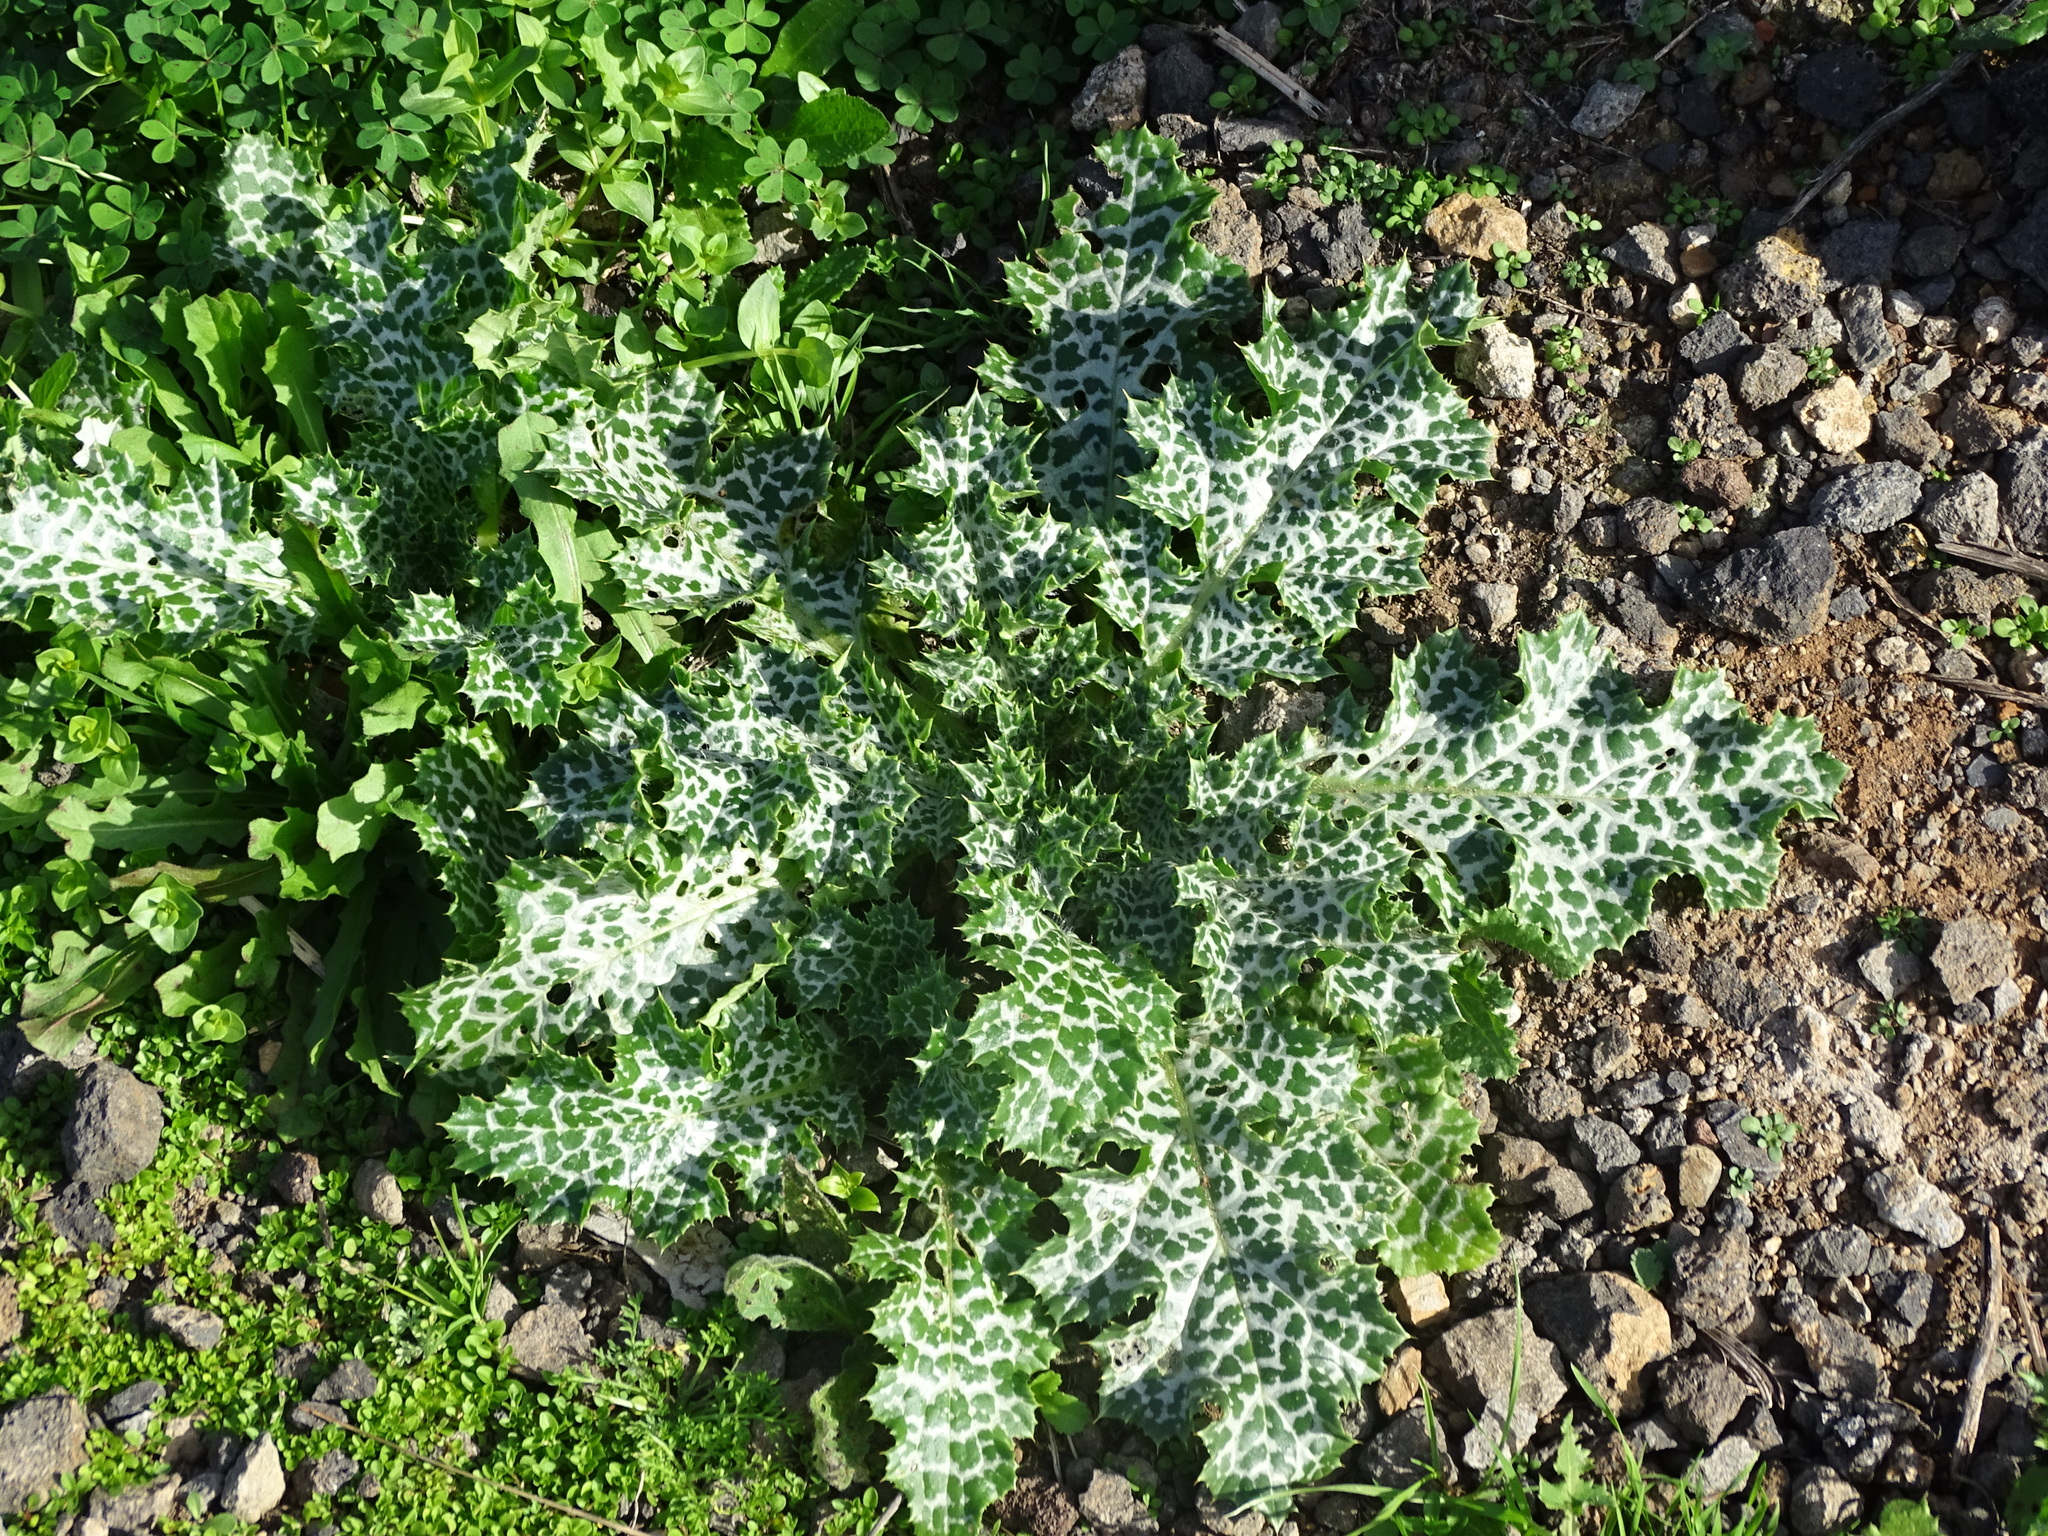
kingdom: Plantae
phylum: Tracheophyta
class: Magnoliopsida
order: Asterales
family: Asteraceae
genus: Silybum
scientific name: Silybum marianum
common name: Milk thistle
